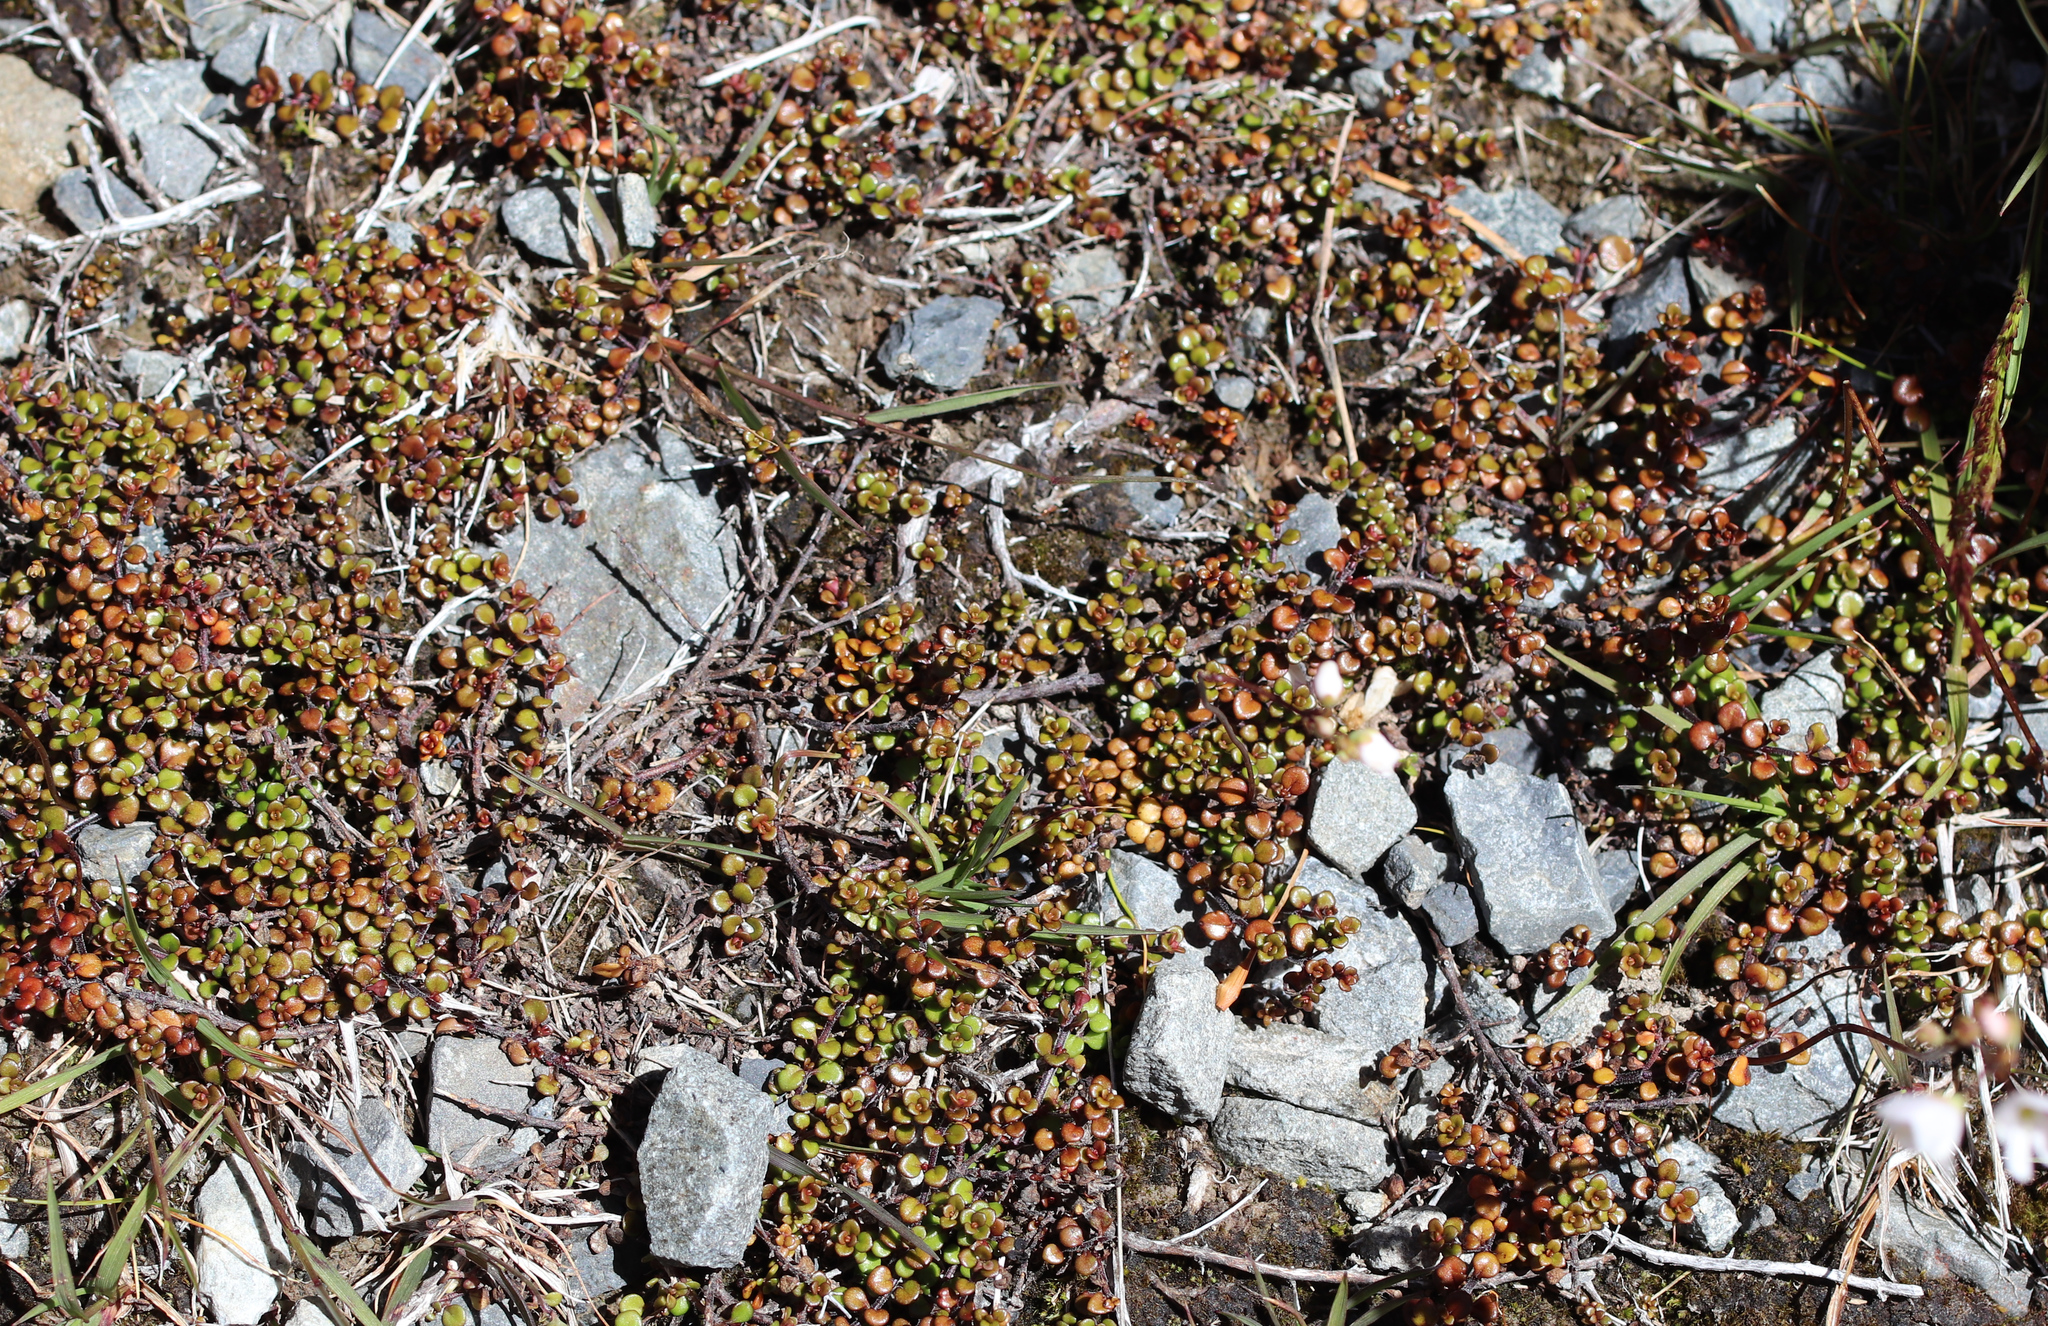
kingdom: Plantae
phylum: Tracheophyta
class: Magnoliopsida
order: Lamiales
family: Plantaginaceae
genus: Veronica
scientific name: Veronica decora
